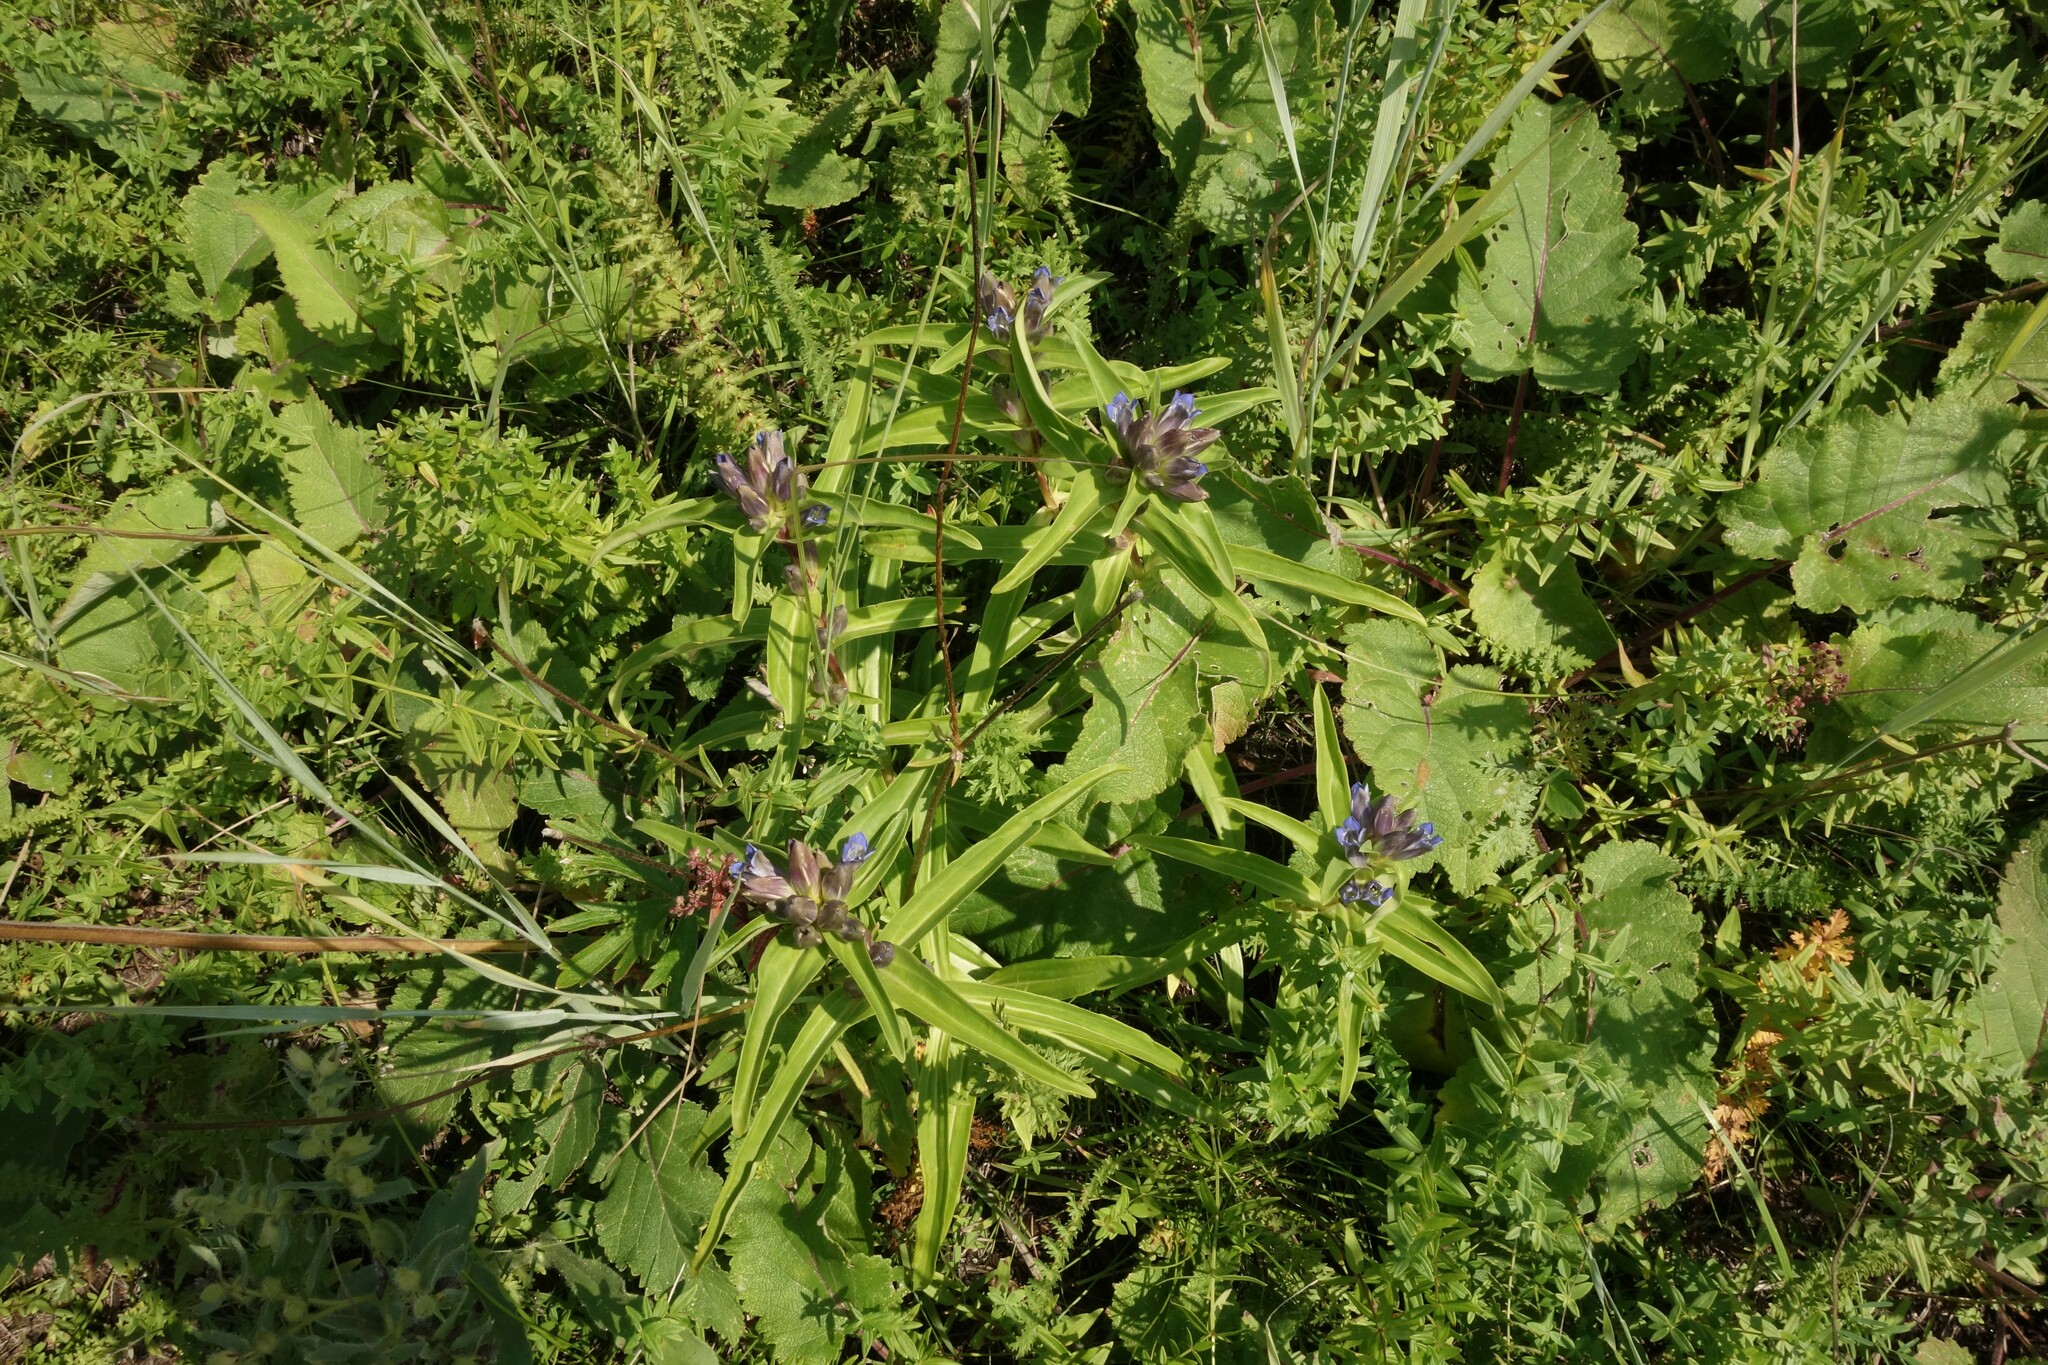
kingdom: Plantae
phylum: Tracheophyta
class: Magnoliopsida
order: Gentianales
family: Gentianaceae
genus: Gentiana
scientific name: Gentiana cruciata
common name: Cross gentian
